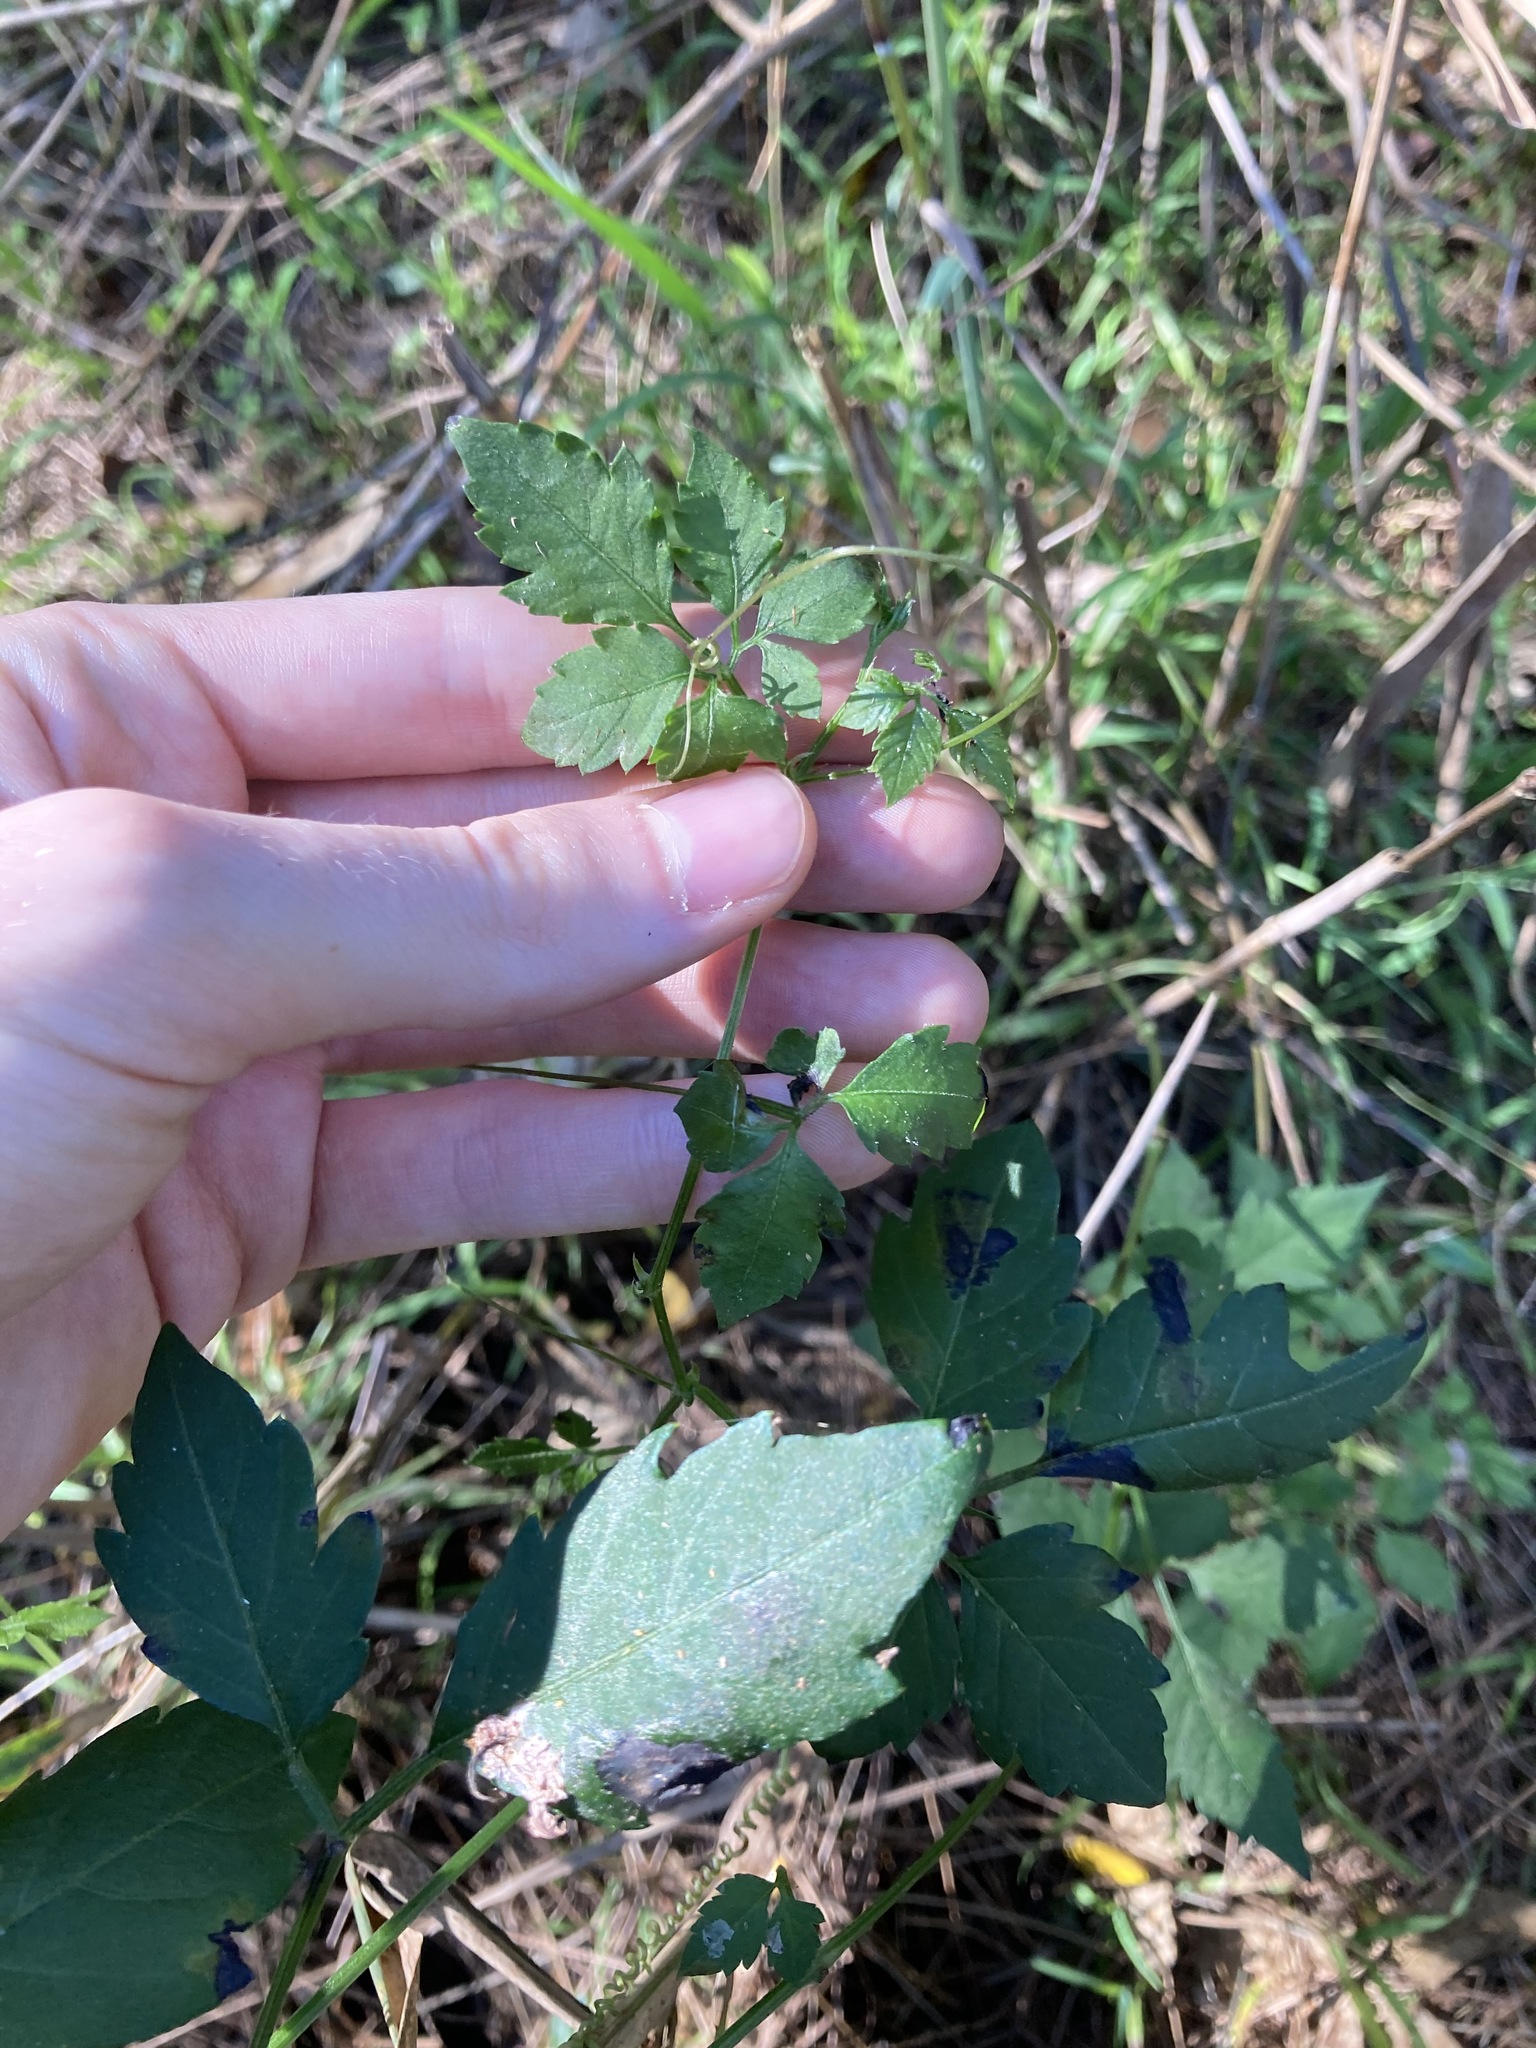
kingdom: Plantae
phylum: Tracheophyta
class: Magnoliopsida
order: Vitales
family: Vitaceae
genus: Causonis
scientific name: Causonis clematidea
